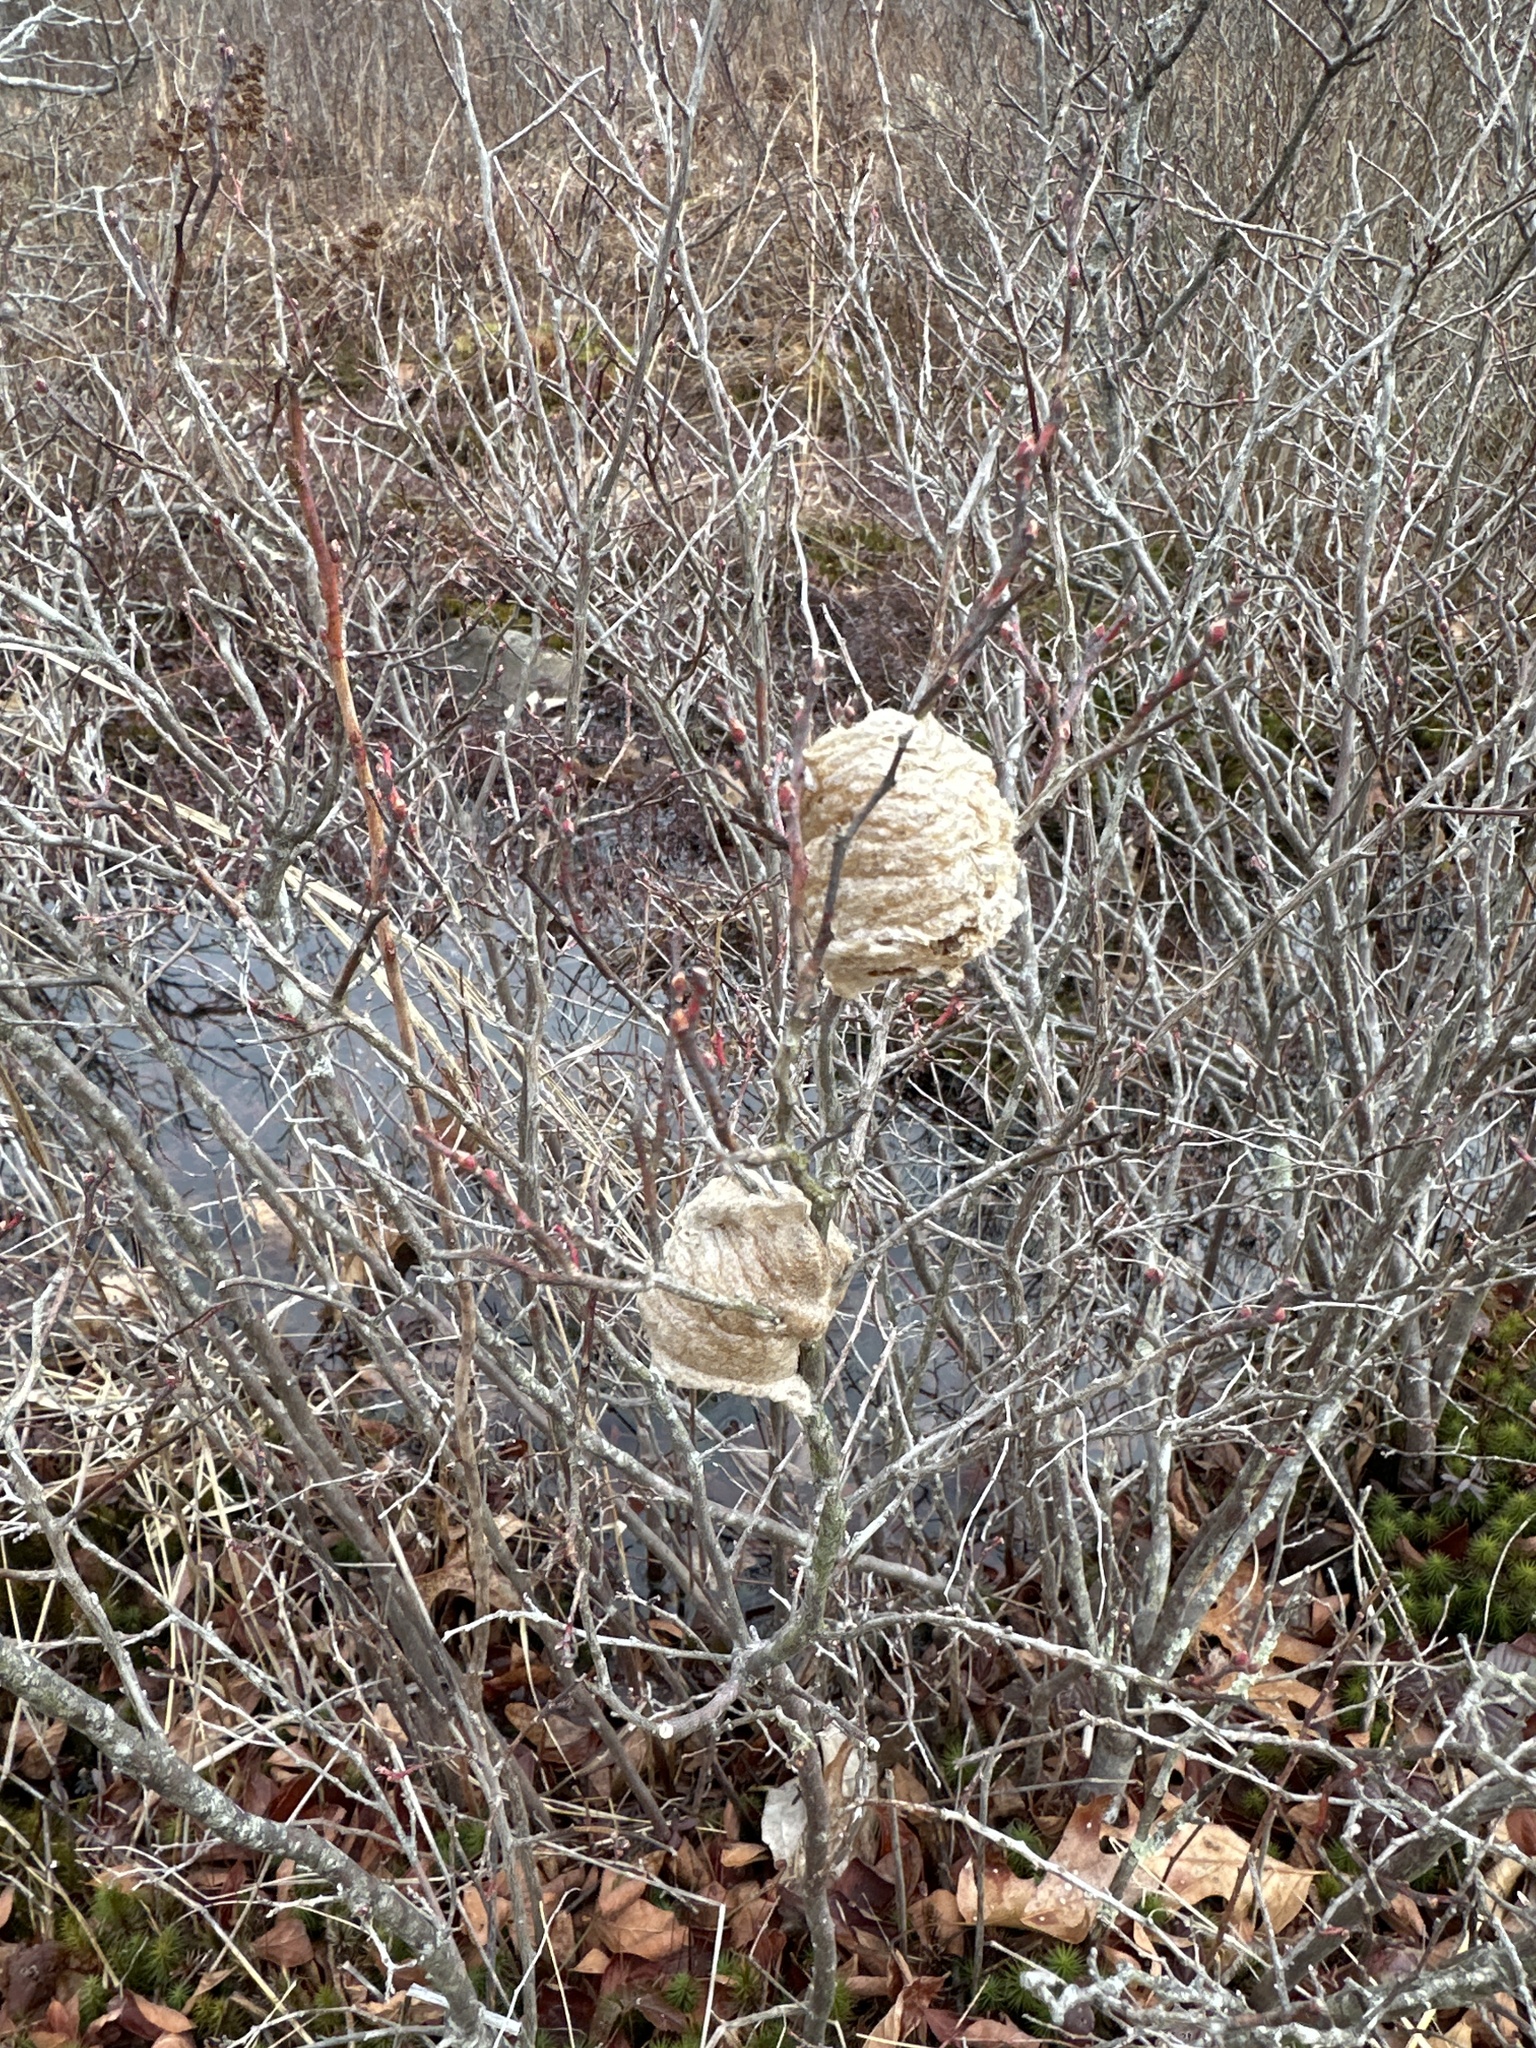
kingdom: Animalia
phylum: Arthropoda
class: Insecta
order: Mantodea
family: Mantidae
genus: Tenodera
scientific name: Tenodera sinensis
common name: Chinese mantis
